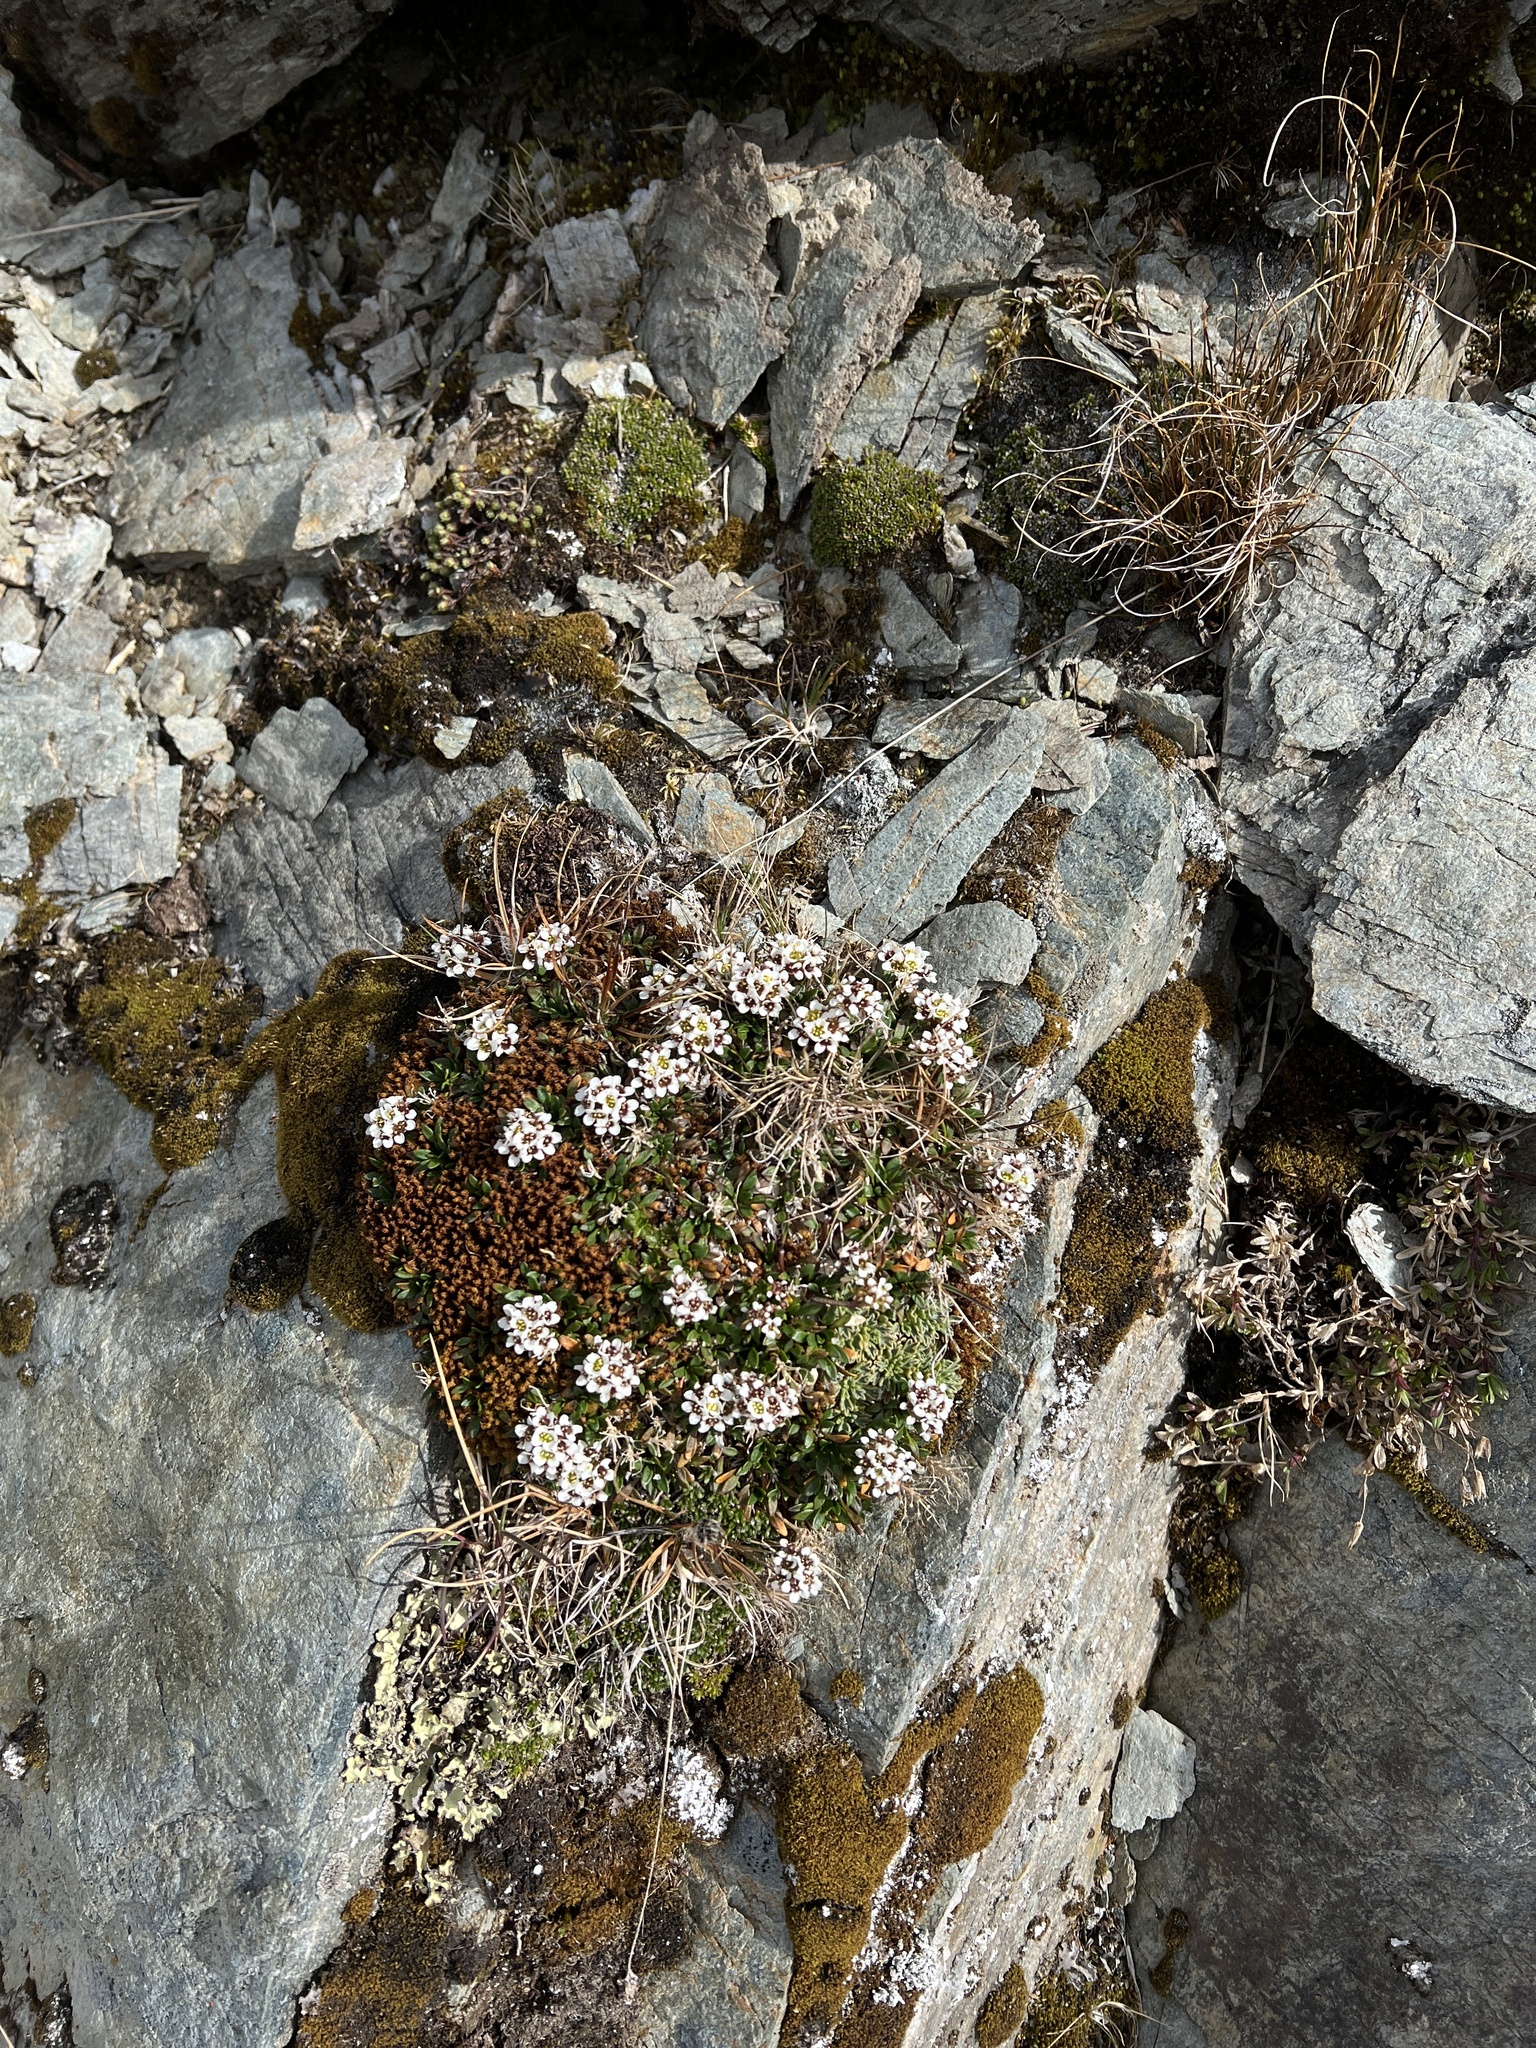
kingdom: Plantae
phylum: Tracheophyta
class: Magnoliopsida
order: Brassicales
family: Brassicaceae
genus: Onuris
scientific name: Onuris alismatifolia
